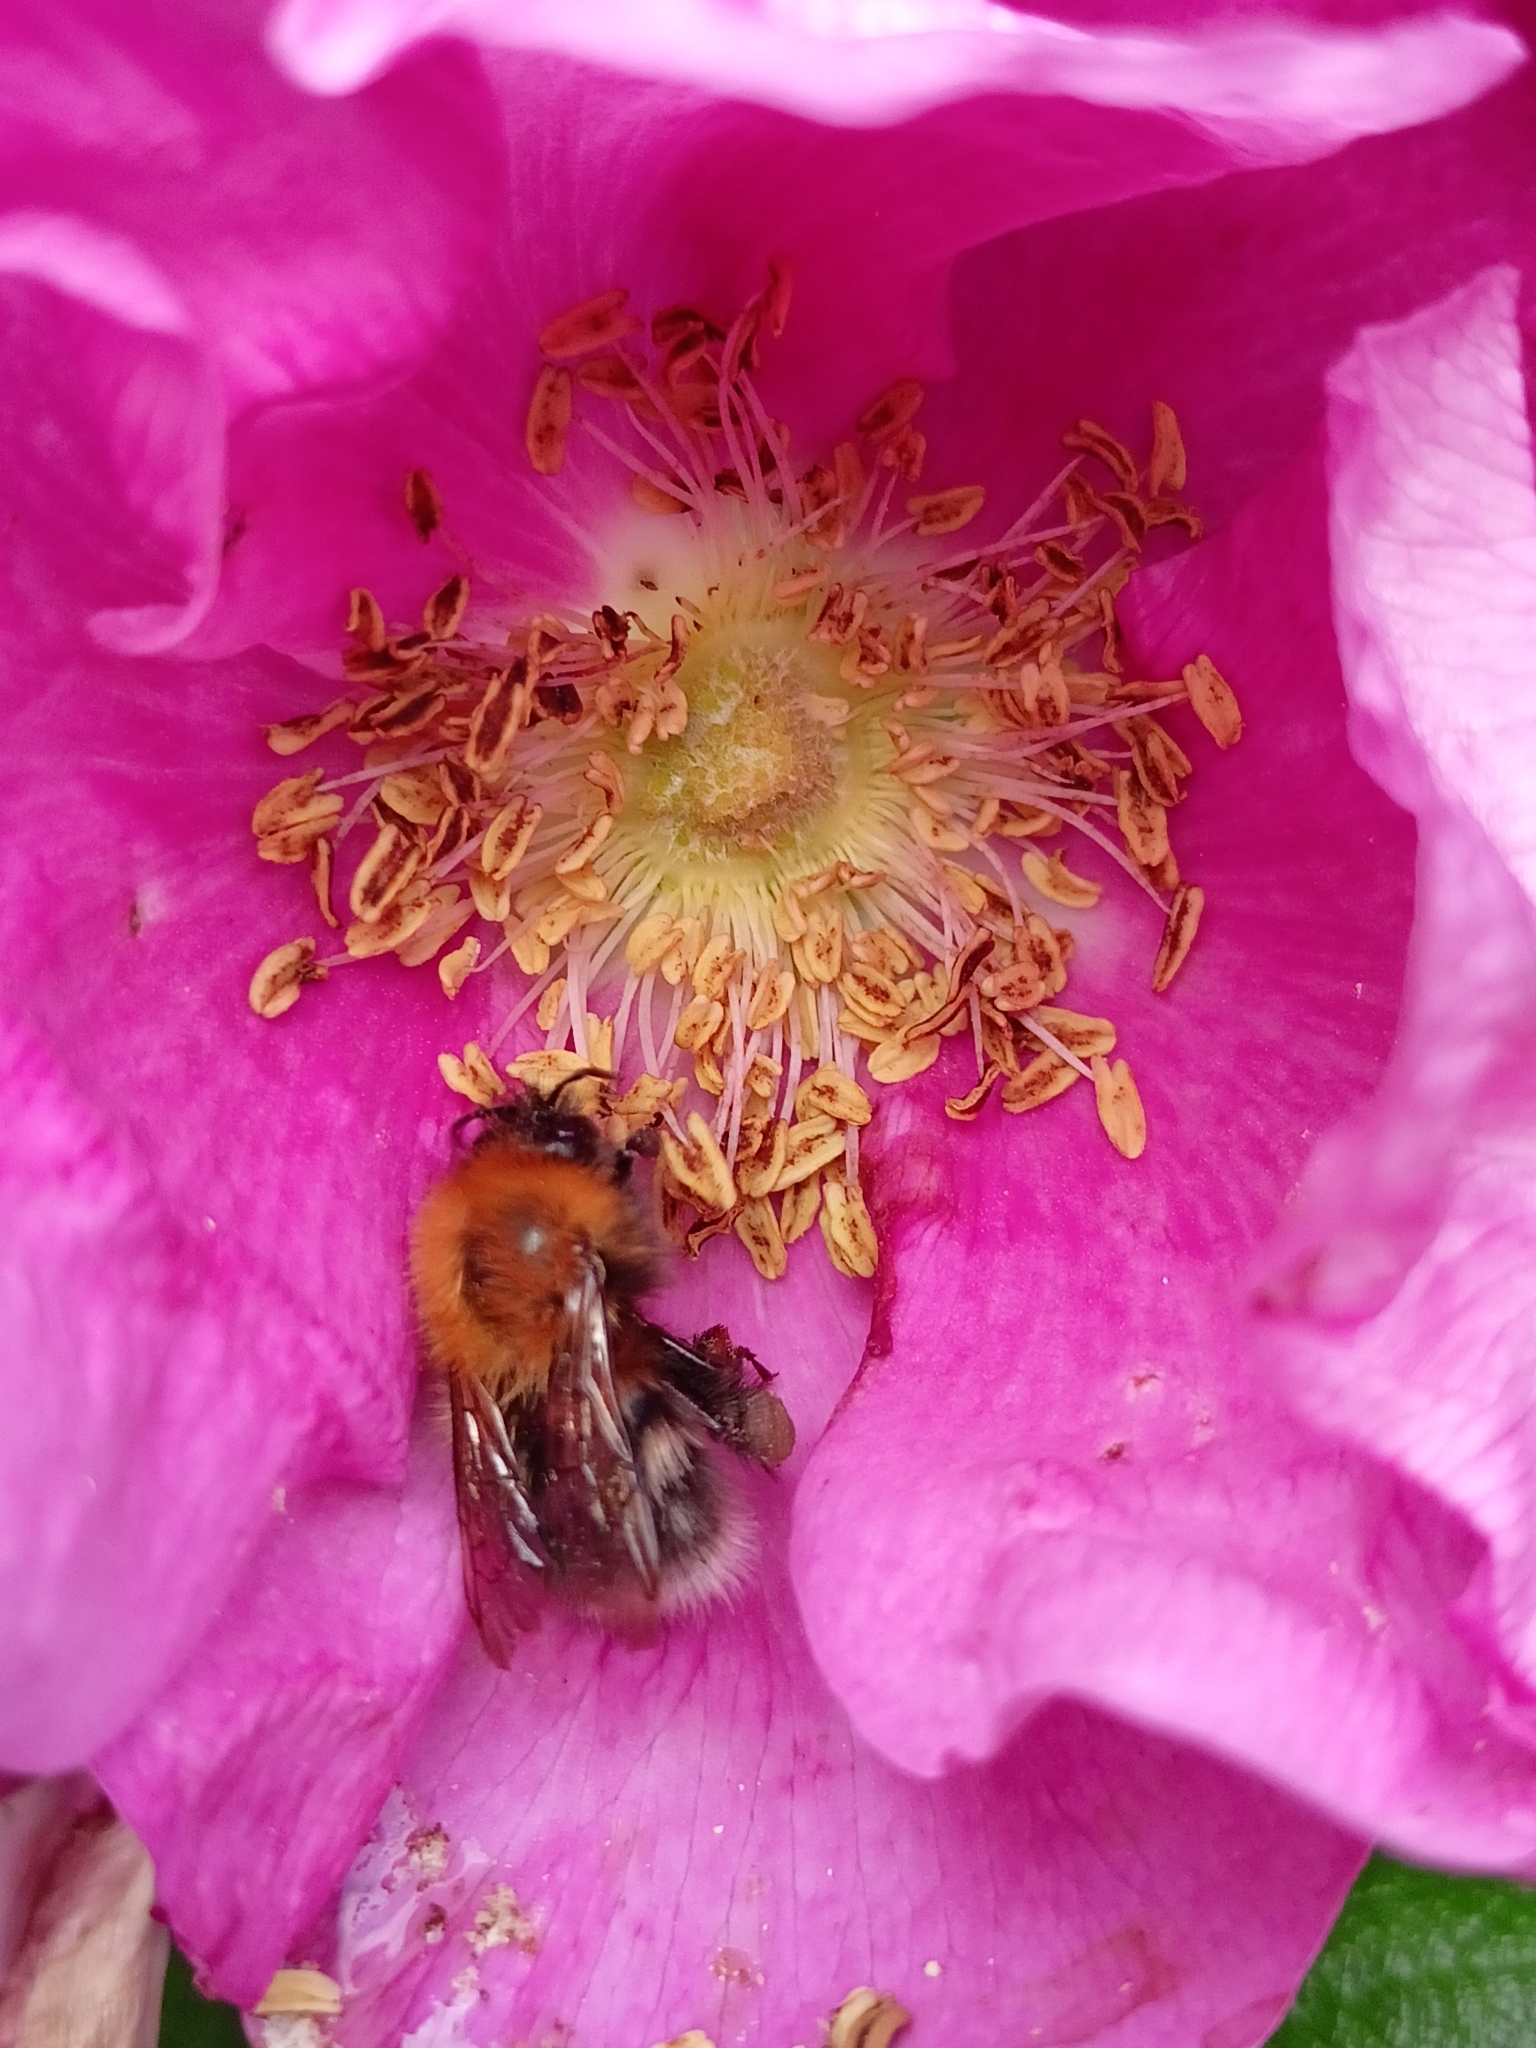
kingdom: Animalia
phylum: Arthropoda
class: Insecta
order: Hymenoptera
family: Apidae
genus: Bombus
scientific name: Bombus hypnorum
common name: New garden bumblebee
